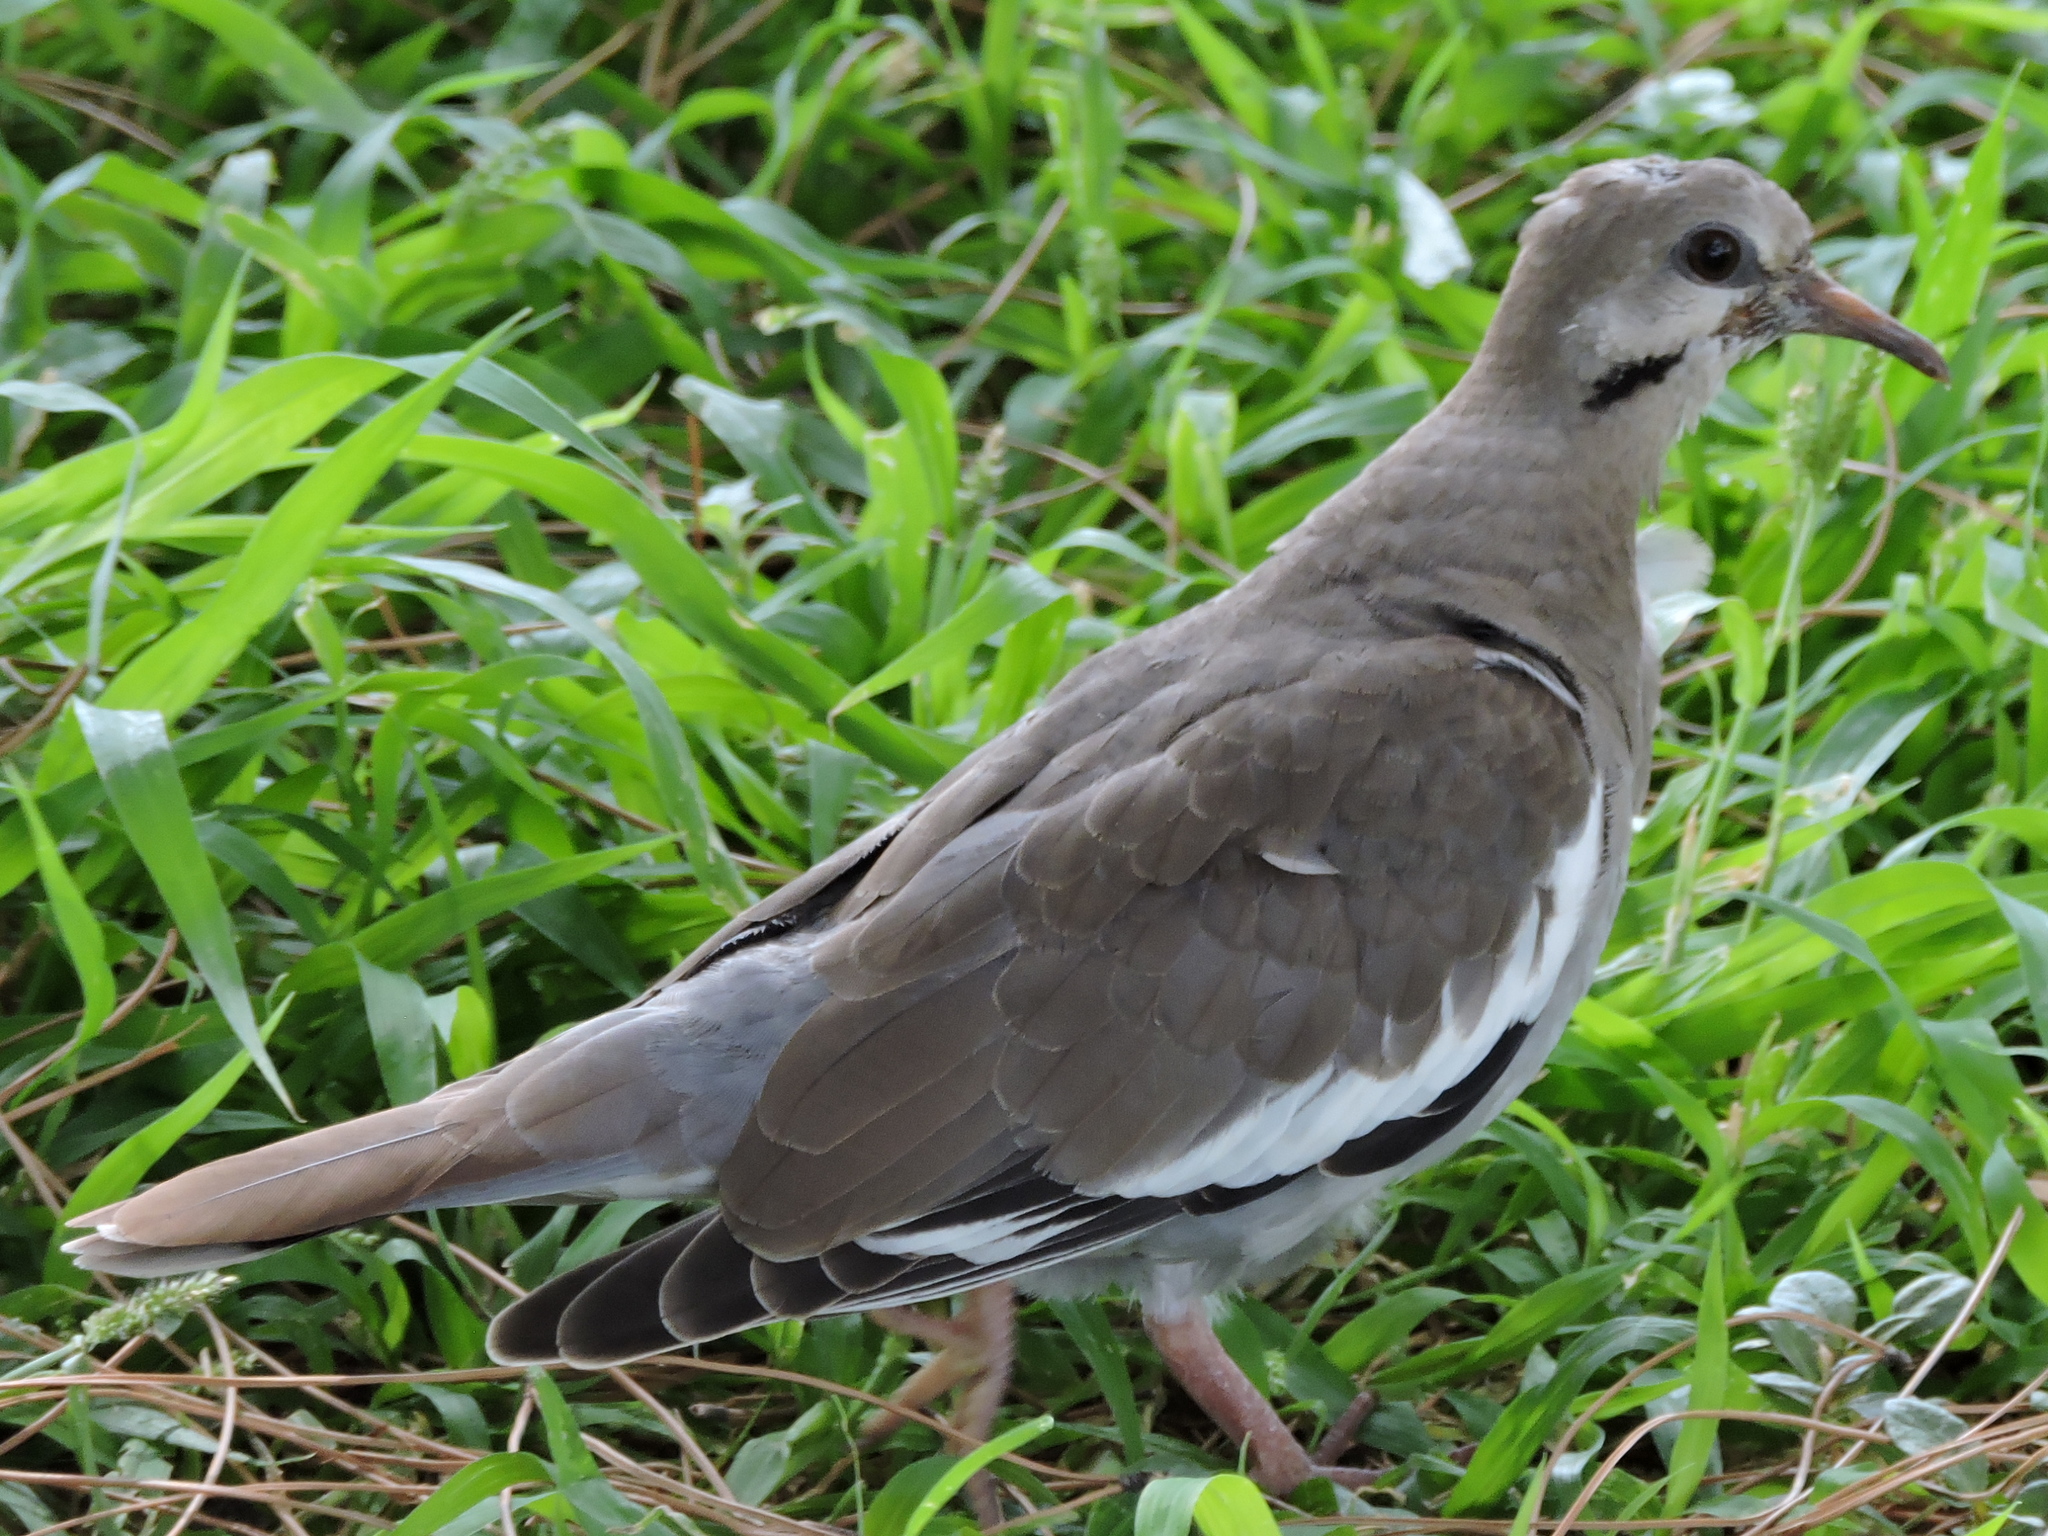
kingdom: Animalia
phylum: Chordata
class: Aves
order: Columbiformes
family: Columbidae
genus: Zenaida
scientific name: Zenaida asiatica
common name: White-winged dove
